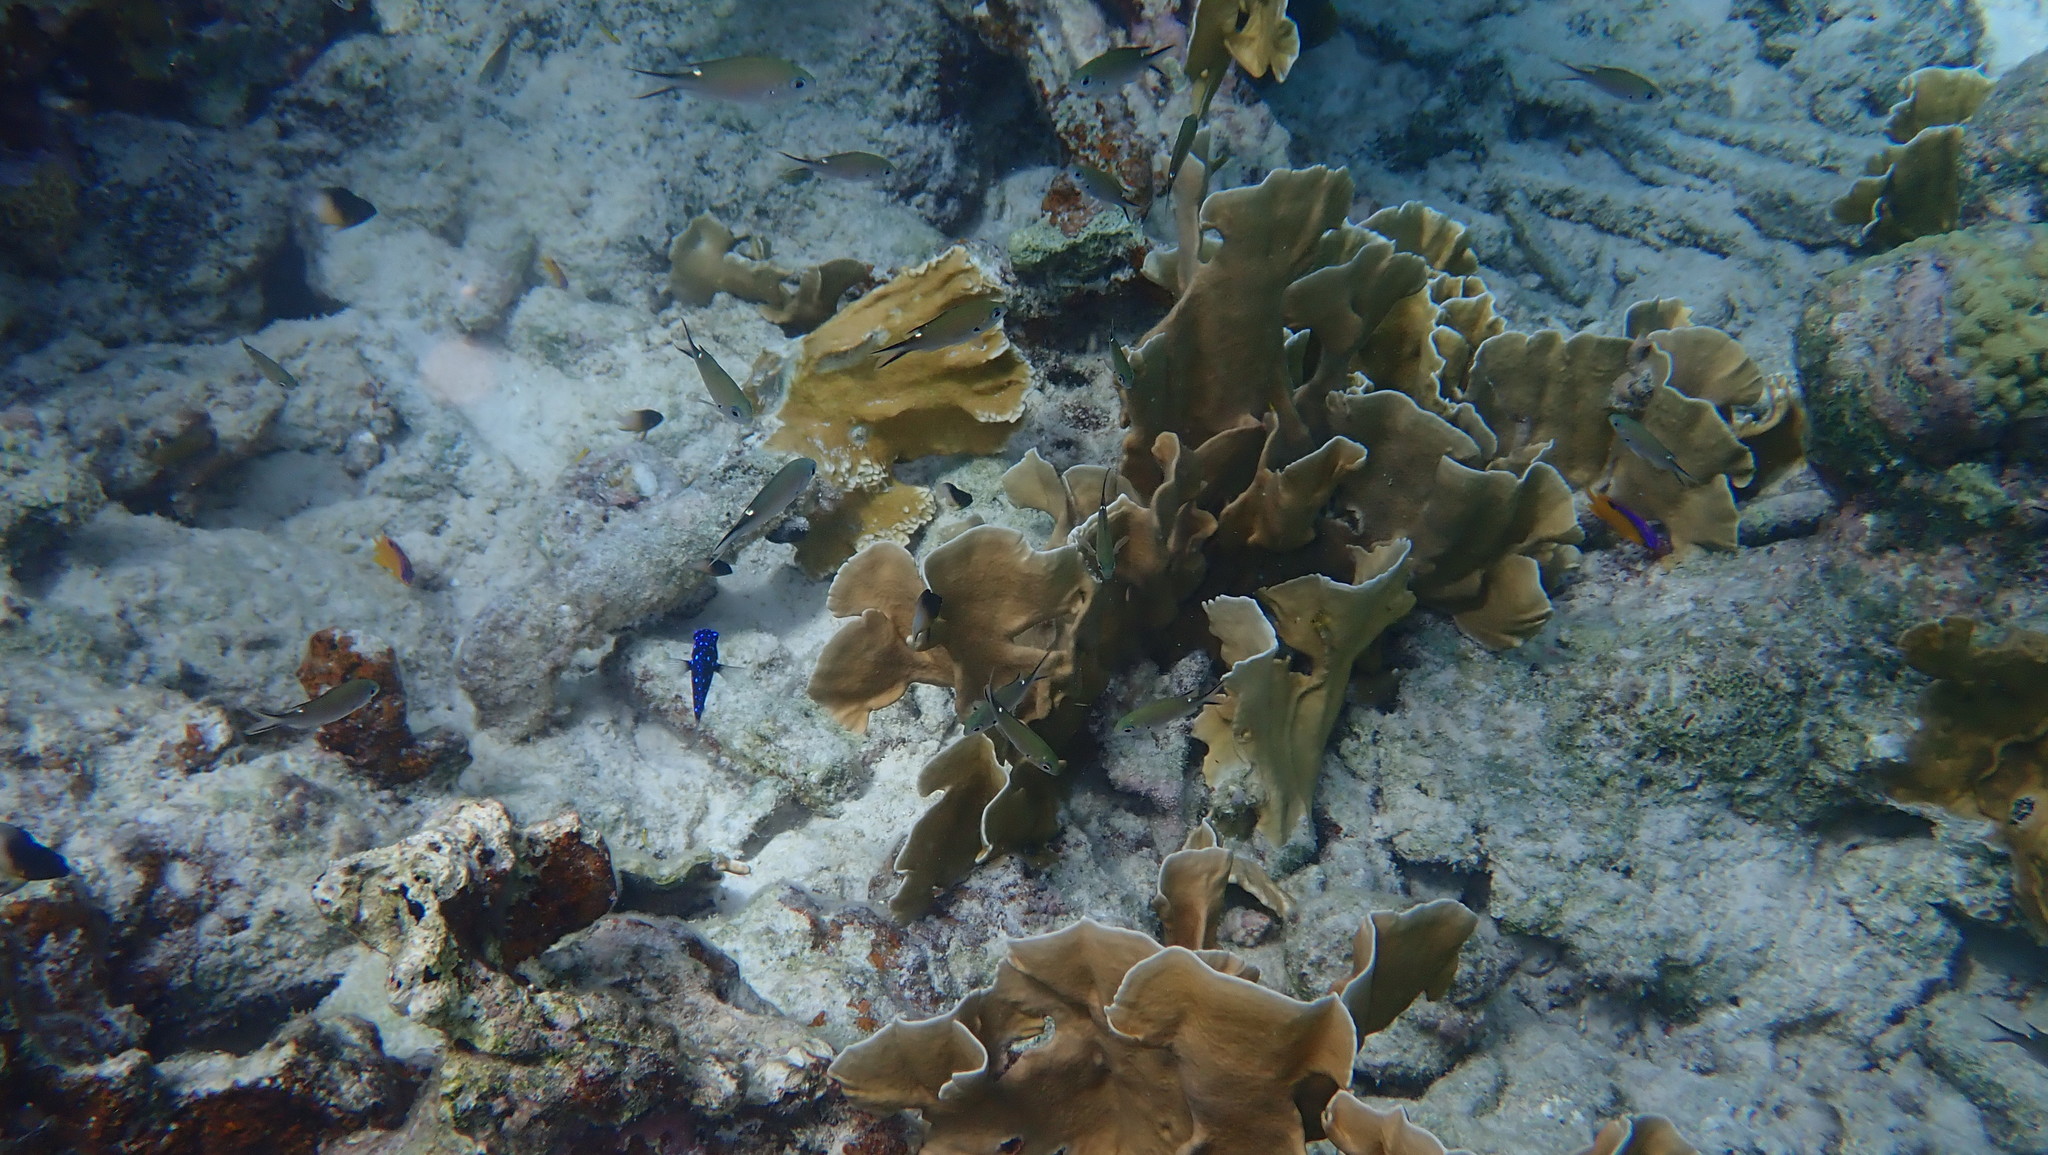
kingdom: Animalia
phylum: Cnidaria
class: Hydrozoa
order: Anthoathecata
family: Milleporidae
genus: Millepora
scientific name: Millepora complanata
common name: Bladed fire coral
